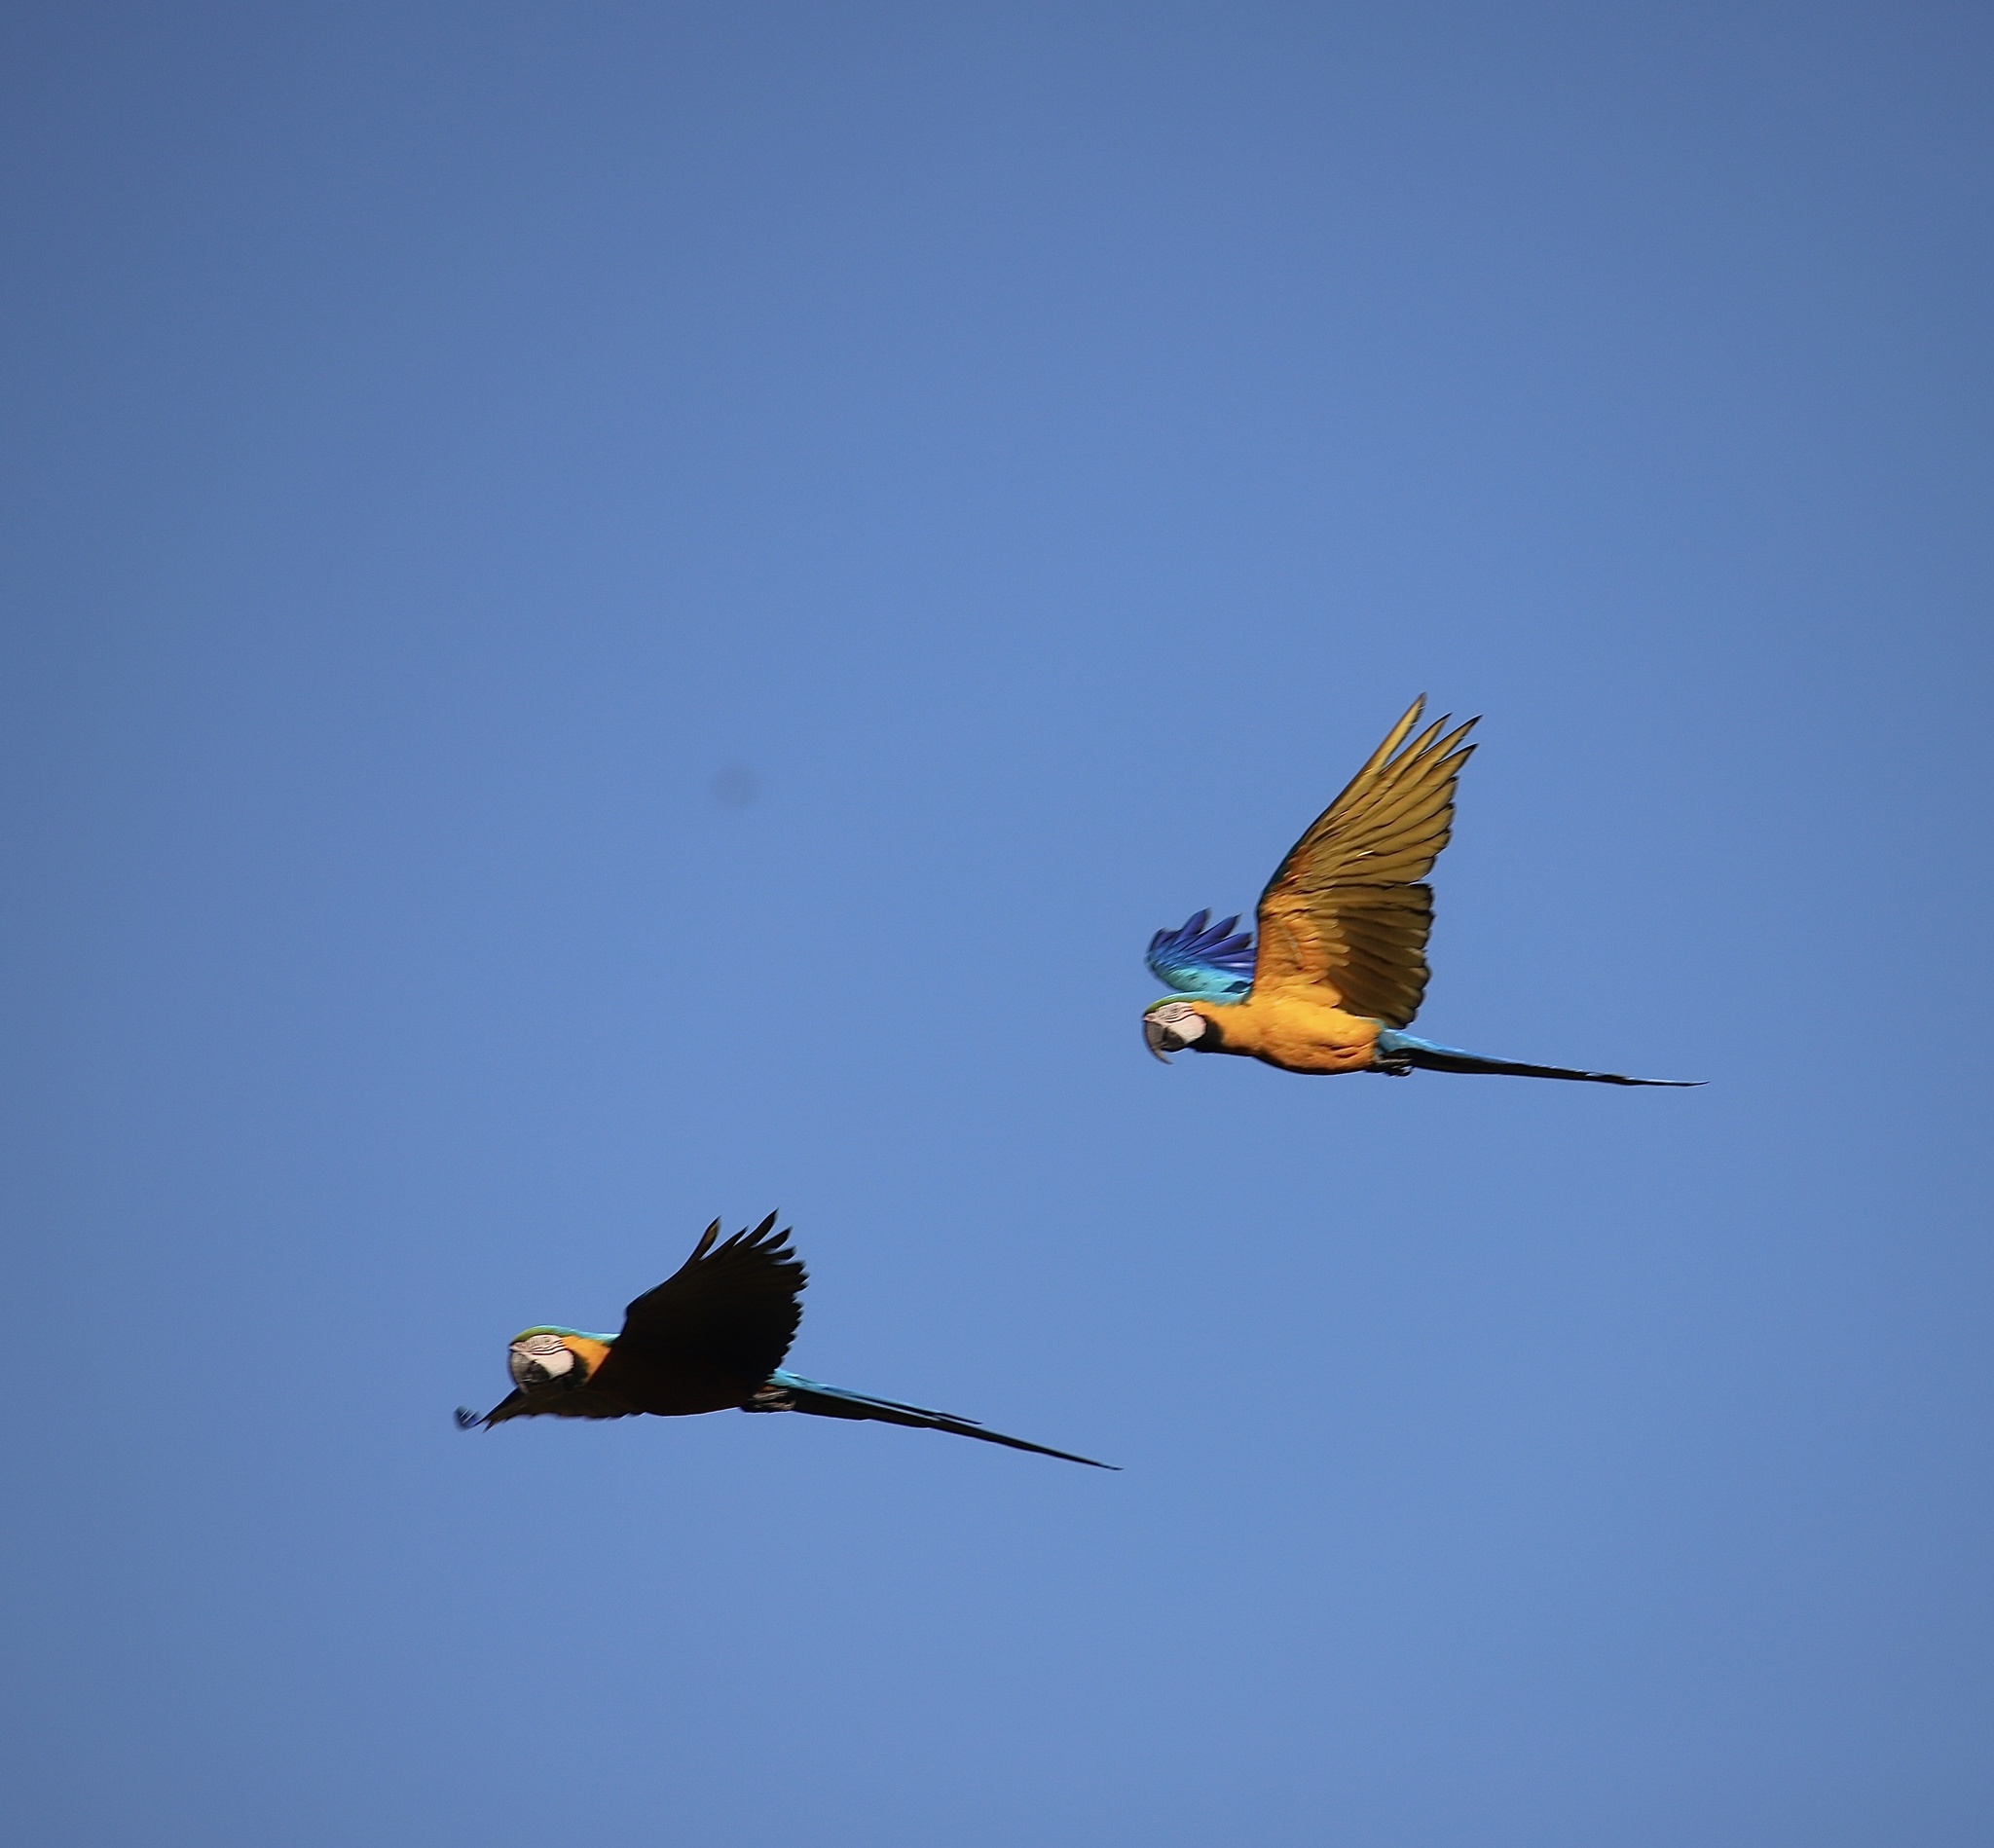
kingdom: Animalia
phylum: Chordata
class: Aves
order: Psittaciformes
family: Psittacidae
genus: Ara
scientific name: Ara ararauna
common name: Blue-and-yellow macaw
